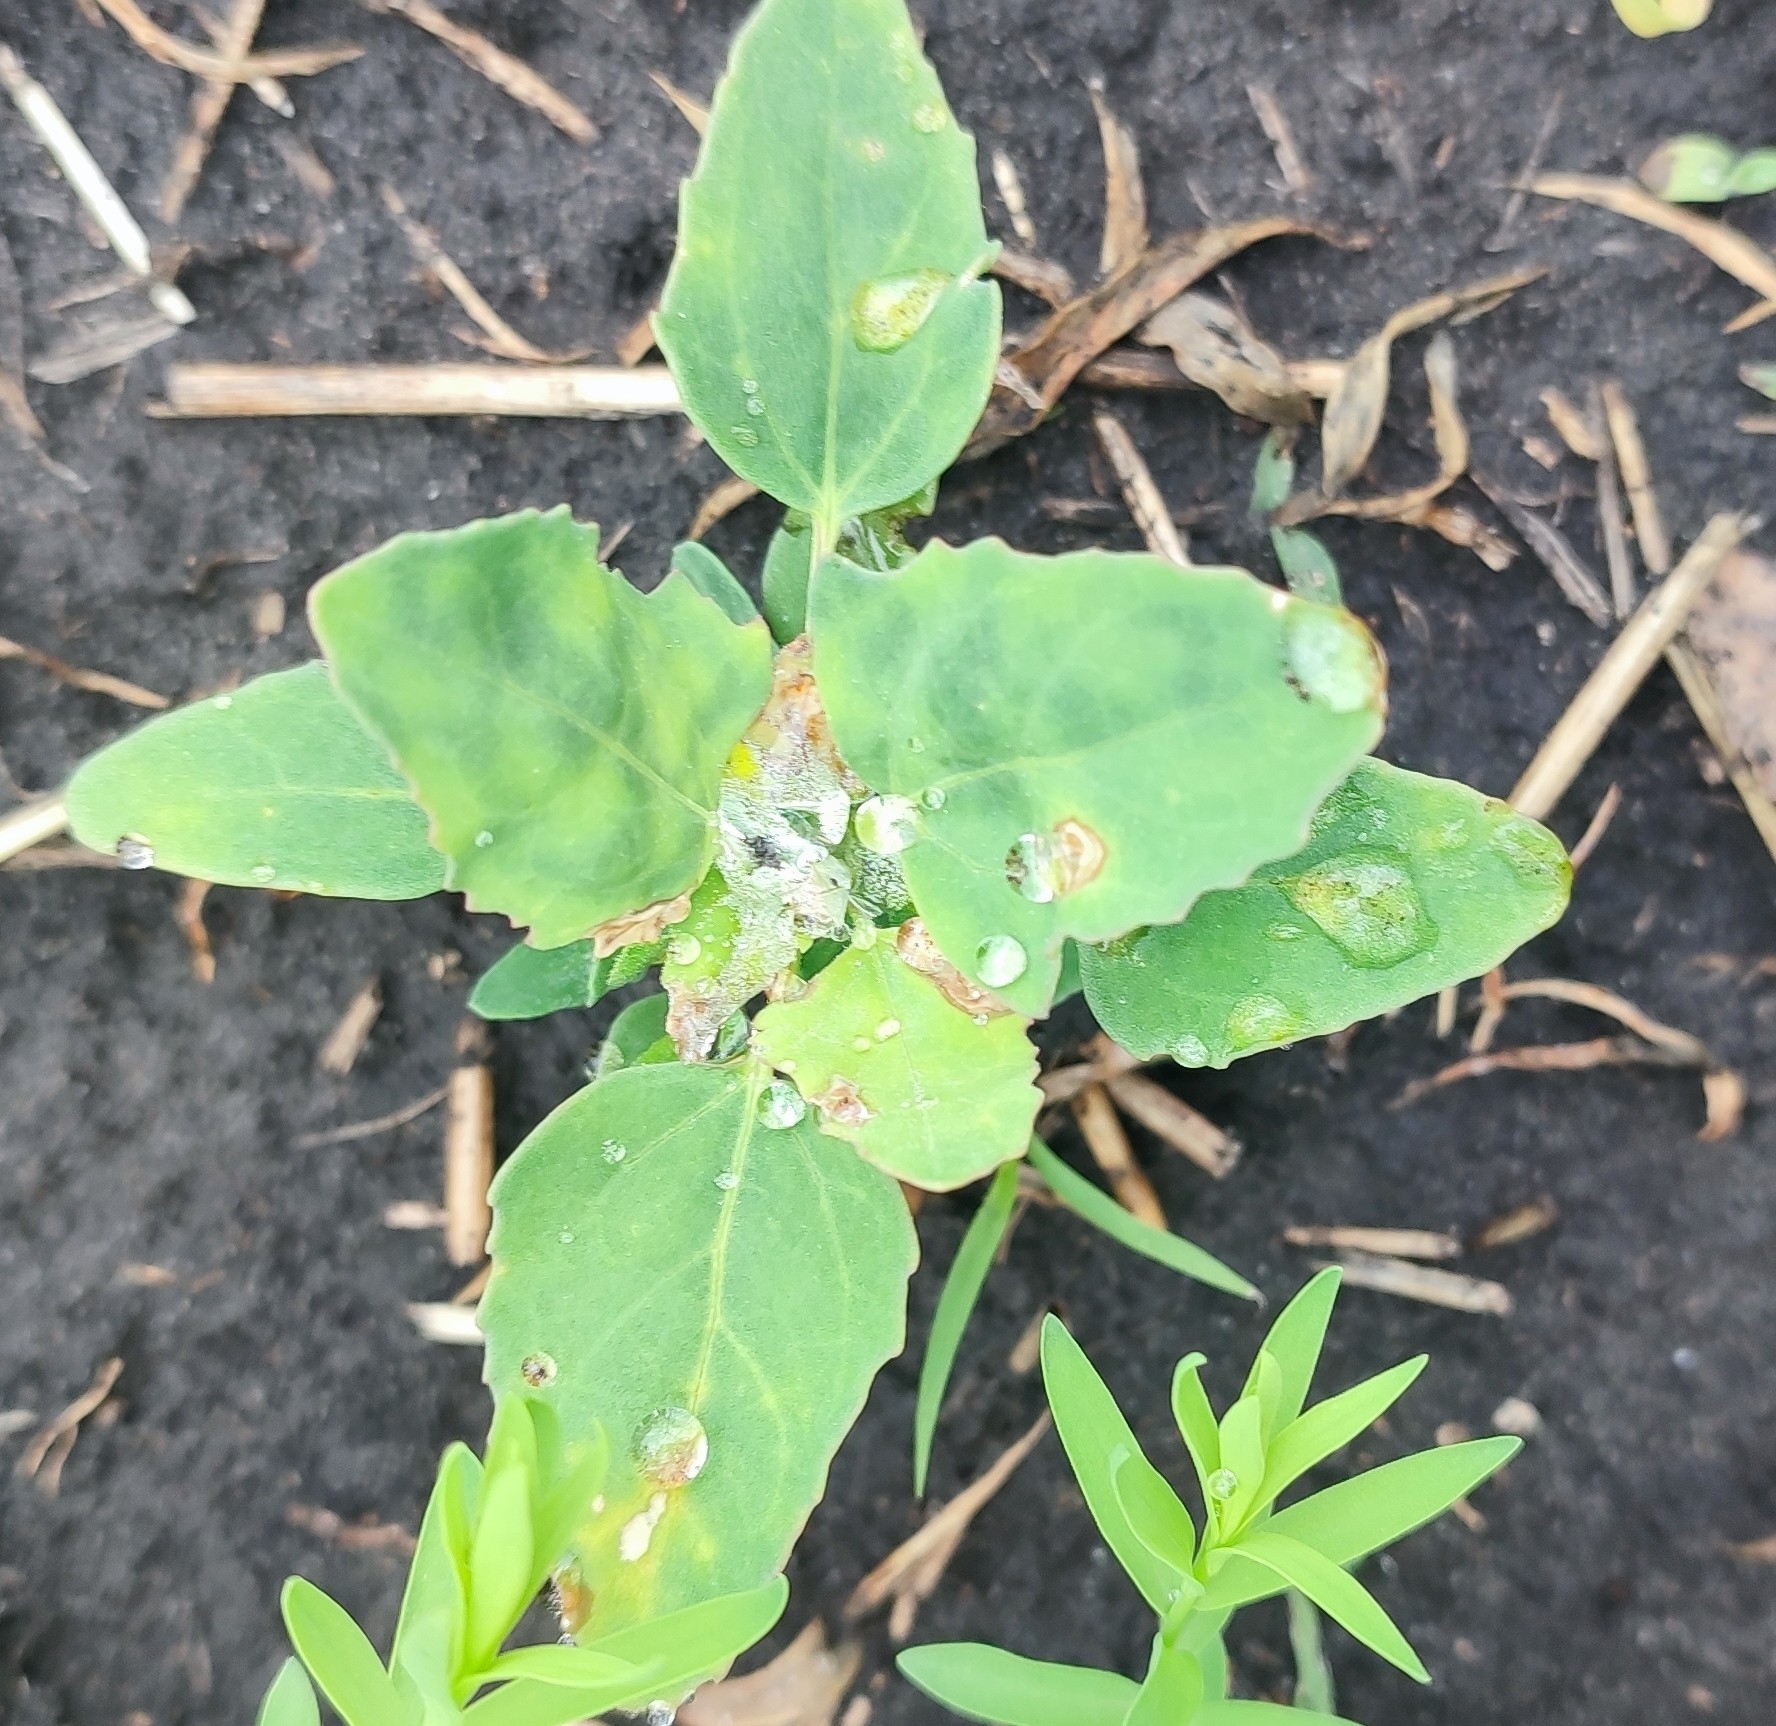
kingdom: Plantae
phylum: Tracheophyta
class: Magnoliopsida
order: Caryophyllales
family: Amaranthaceae
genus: Chenopodium
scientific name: Chenopodium album
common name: Fat-hen
